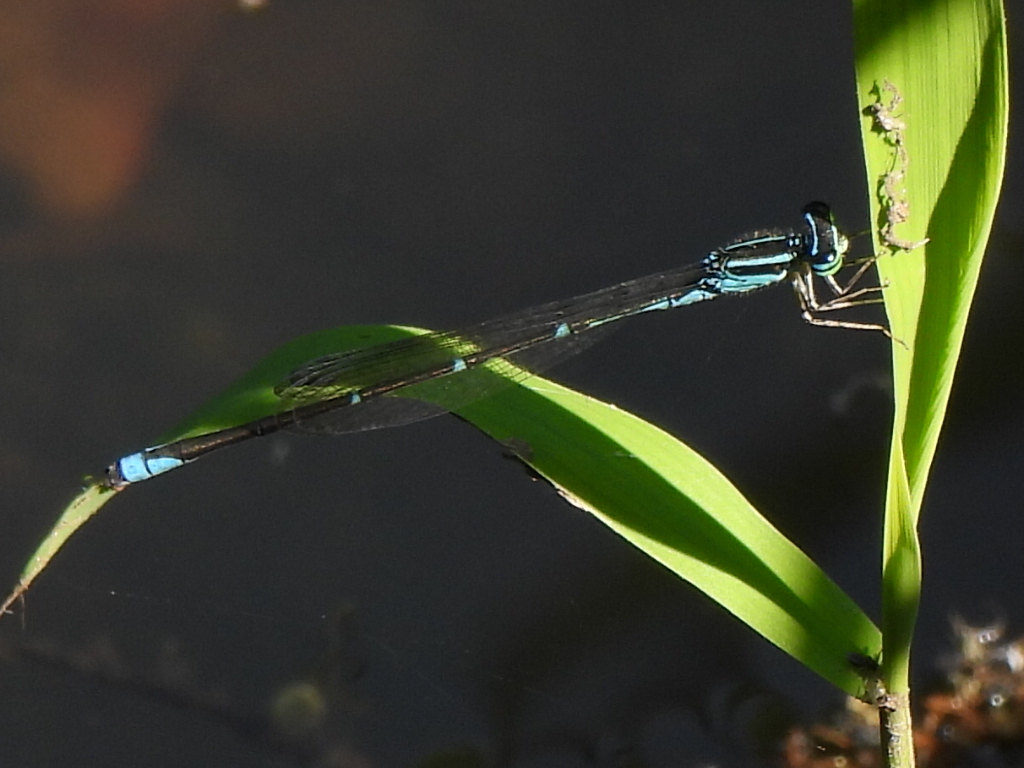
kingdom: Animalia
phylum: Arthropoda
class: Insecta
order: Odonata
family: Coenagrionidae
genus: Enallagma
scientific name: Enallagma exsulans
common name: Stream bluet
